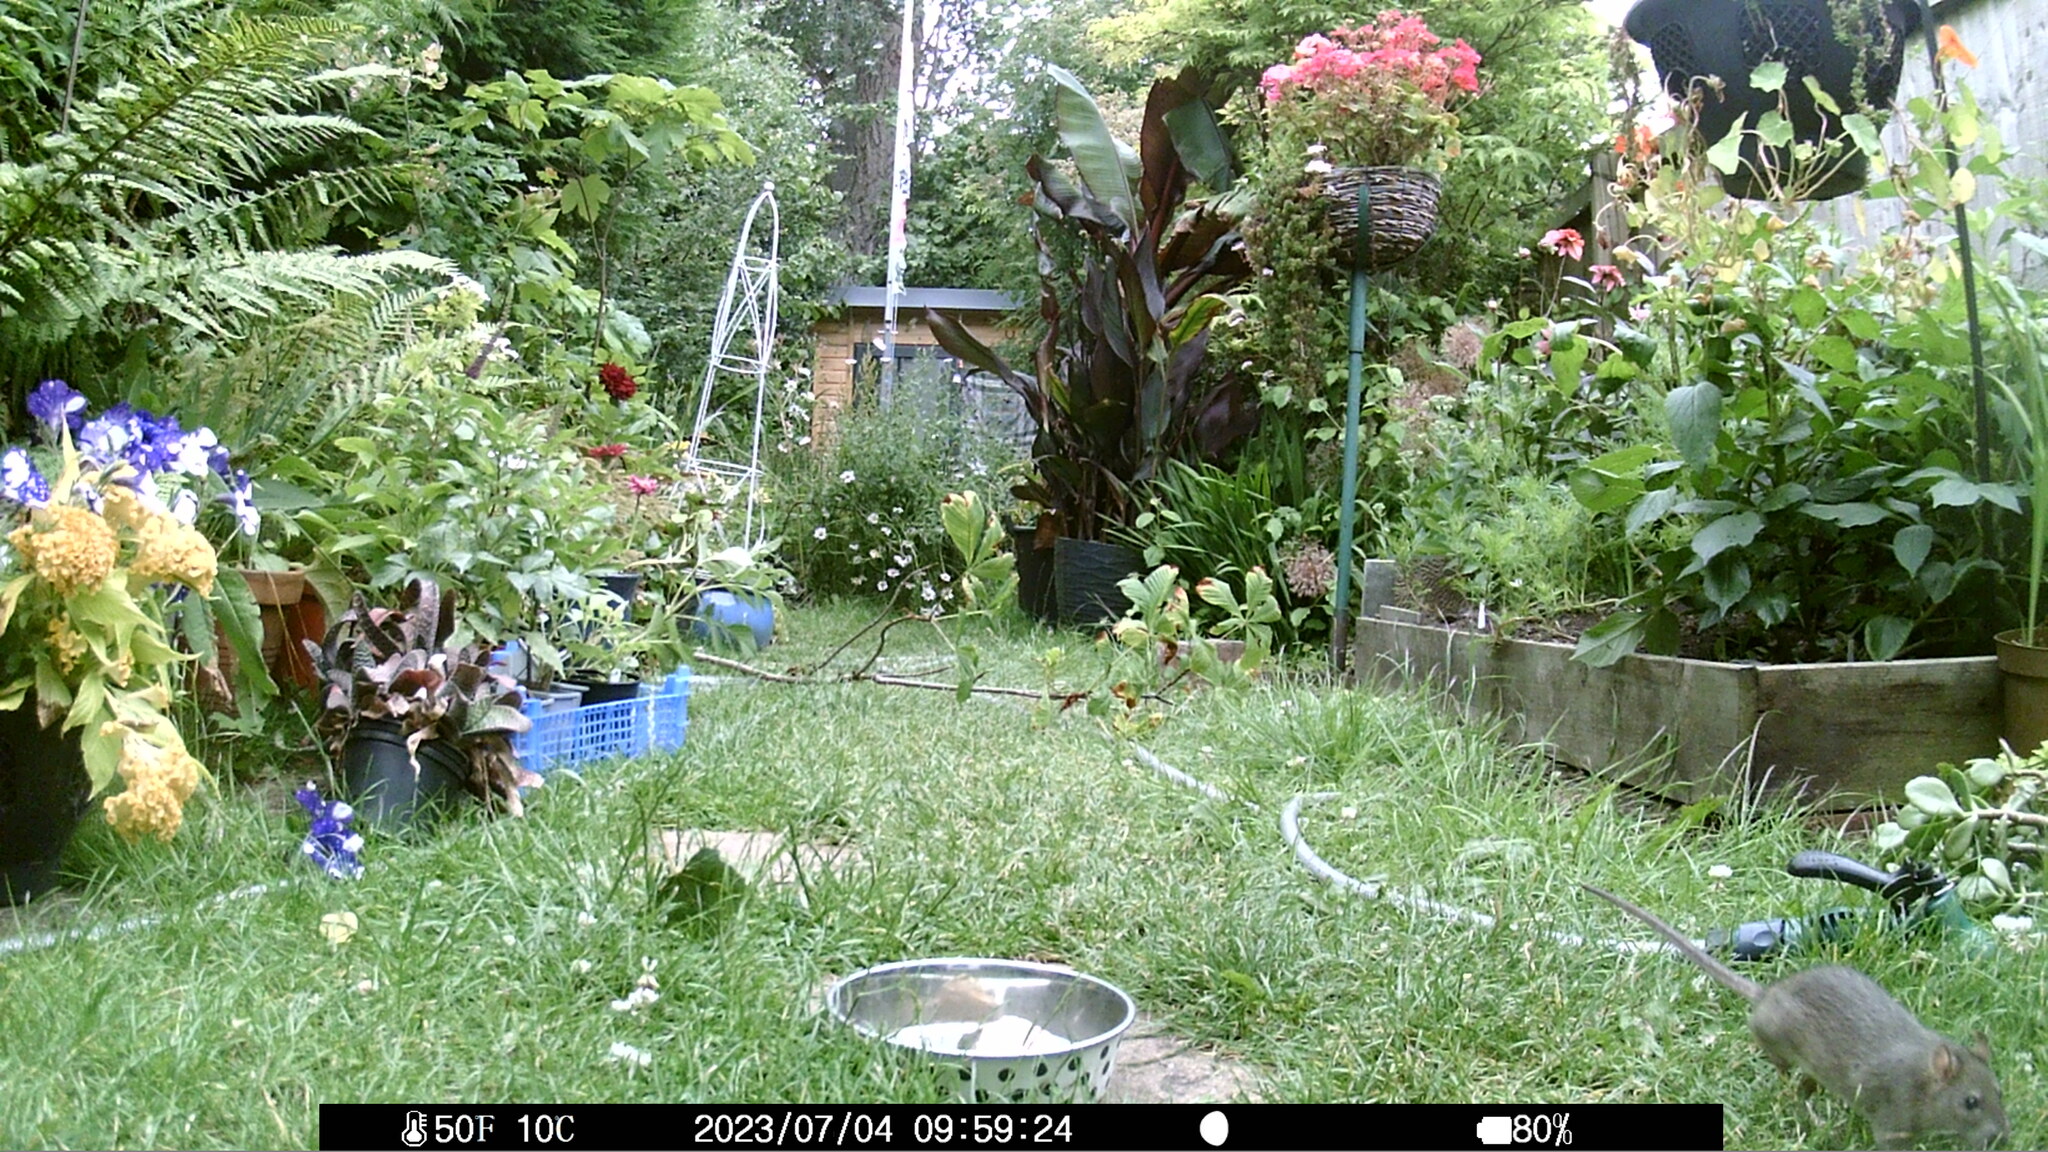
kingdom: Animalia
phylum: Chordata
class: Mammalia
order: Rodentia
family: Muridae
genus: Rattus
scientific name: Rattus norvegicus
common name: Brown rat
